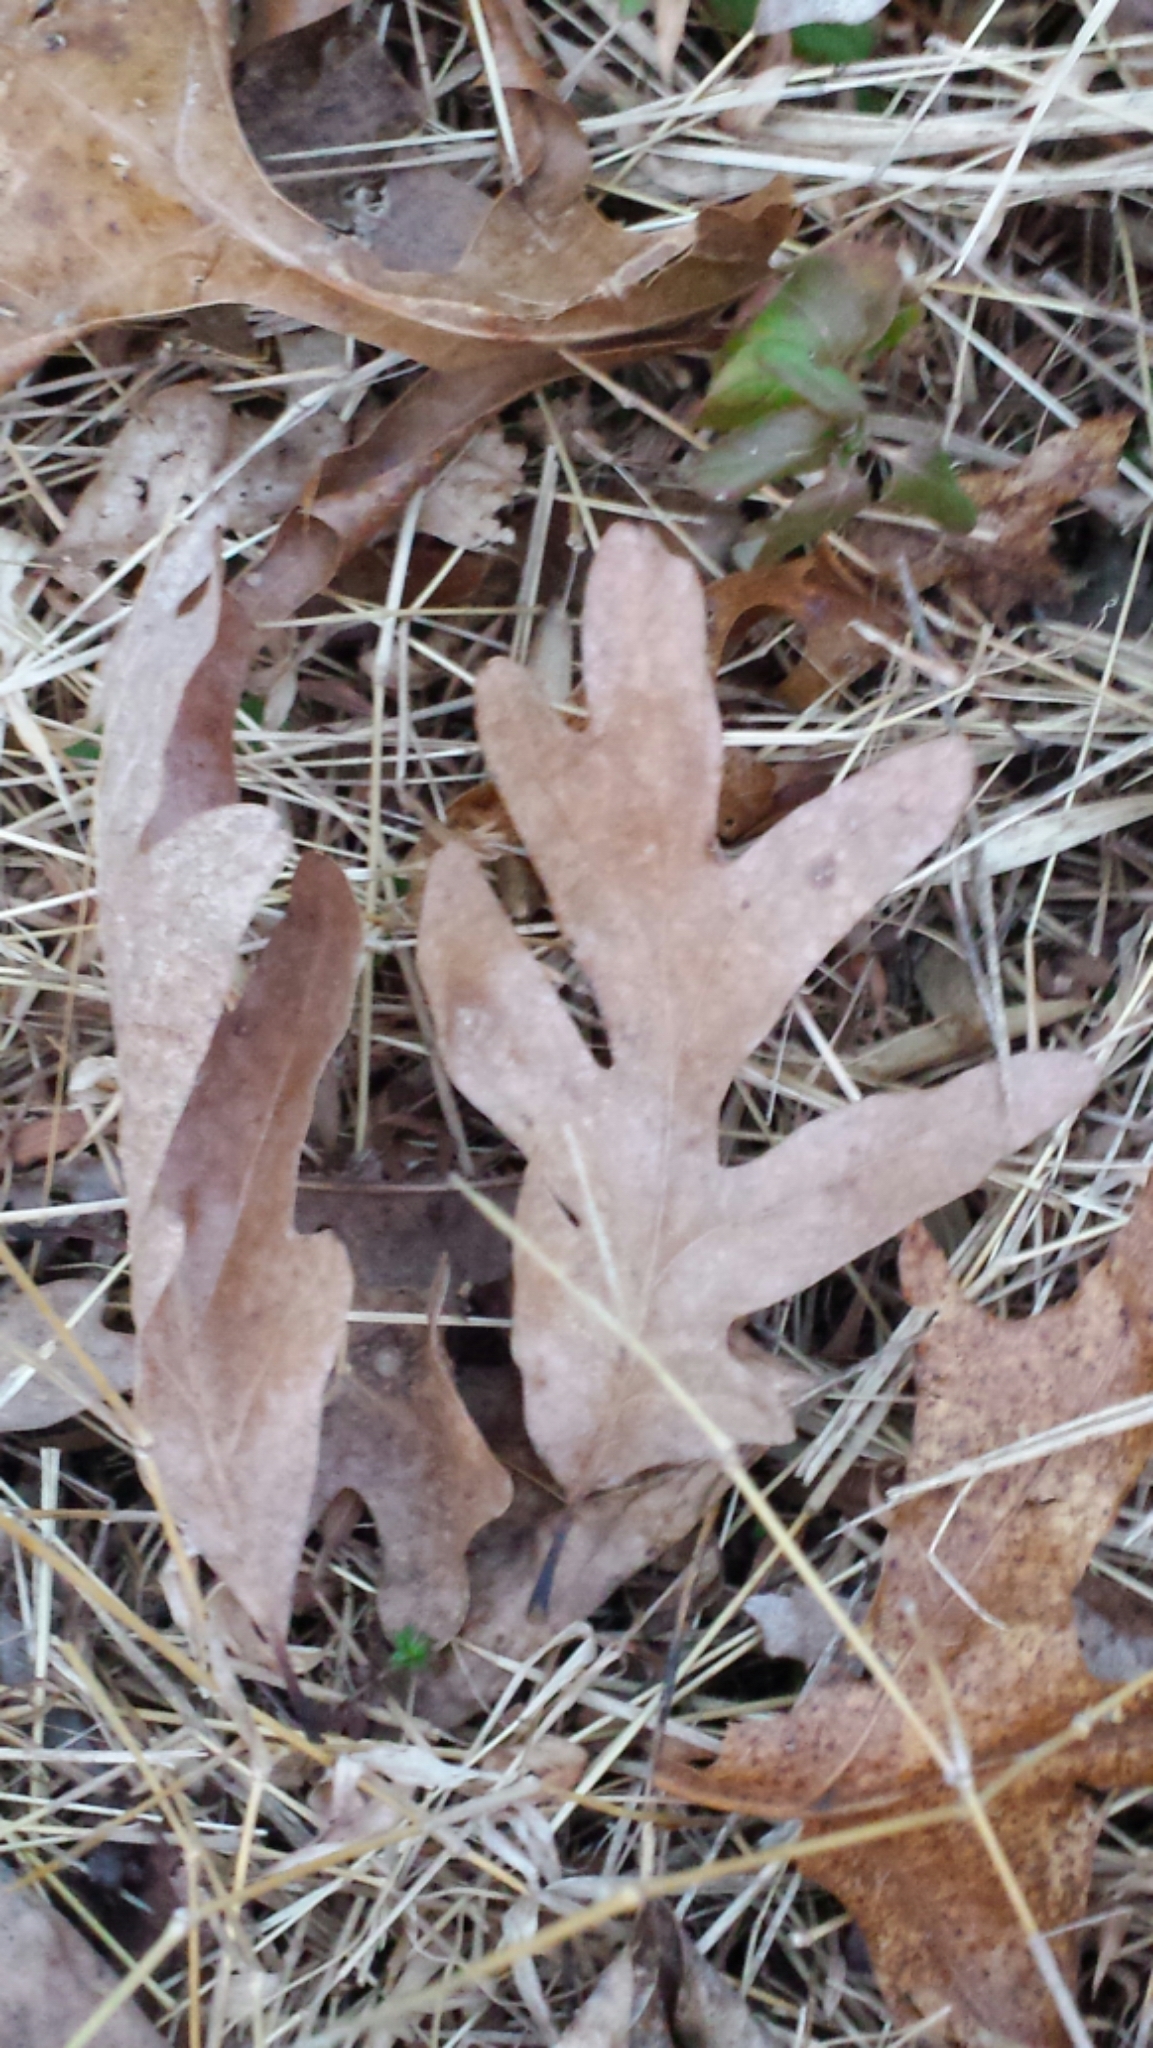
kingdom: Plantae
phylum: Tracheophyta
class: Magnoliopsida
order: Fagales
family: Fagaceae
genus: Quercus
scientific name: Quercus alba
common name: White oak
